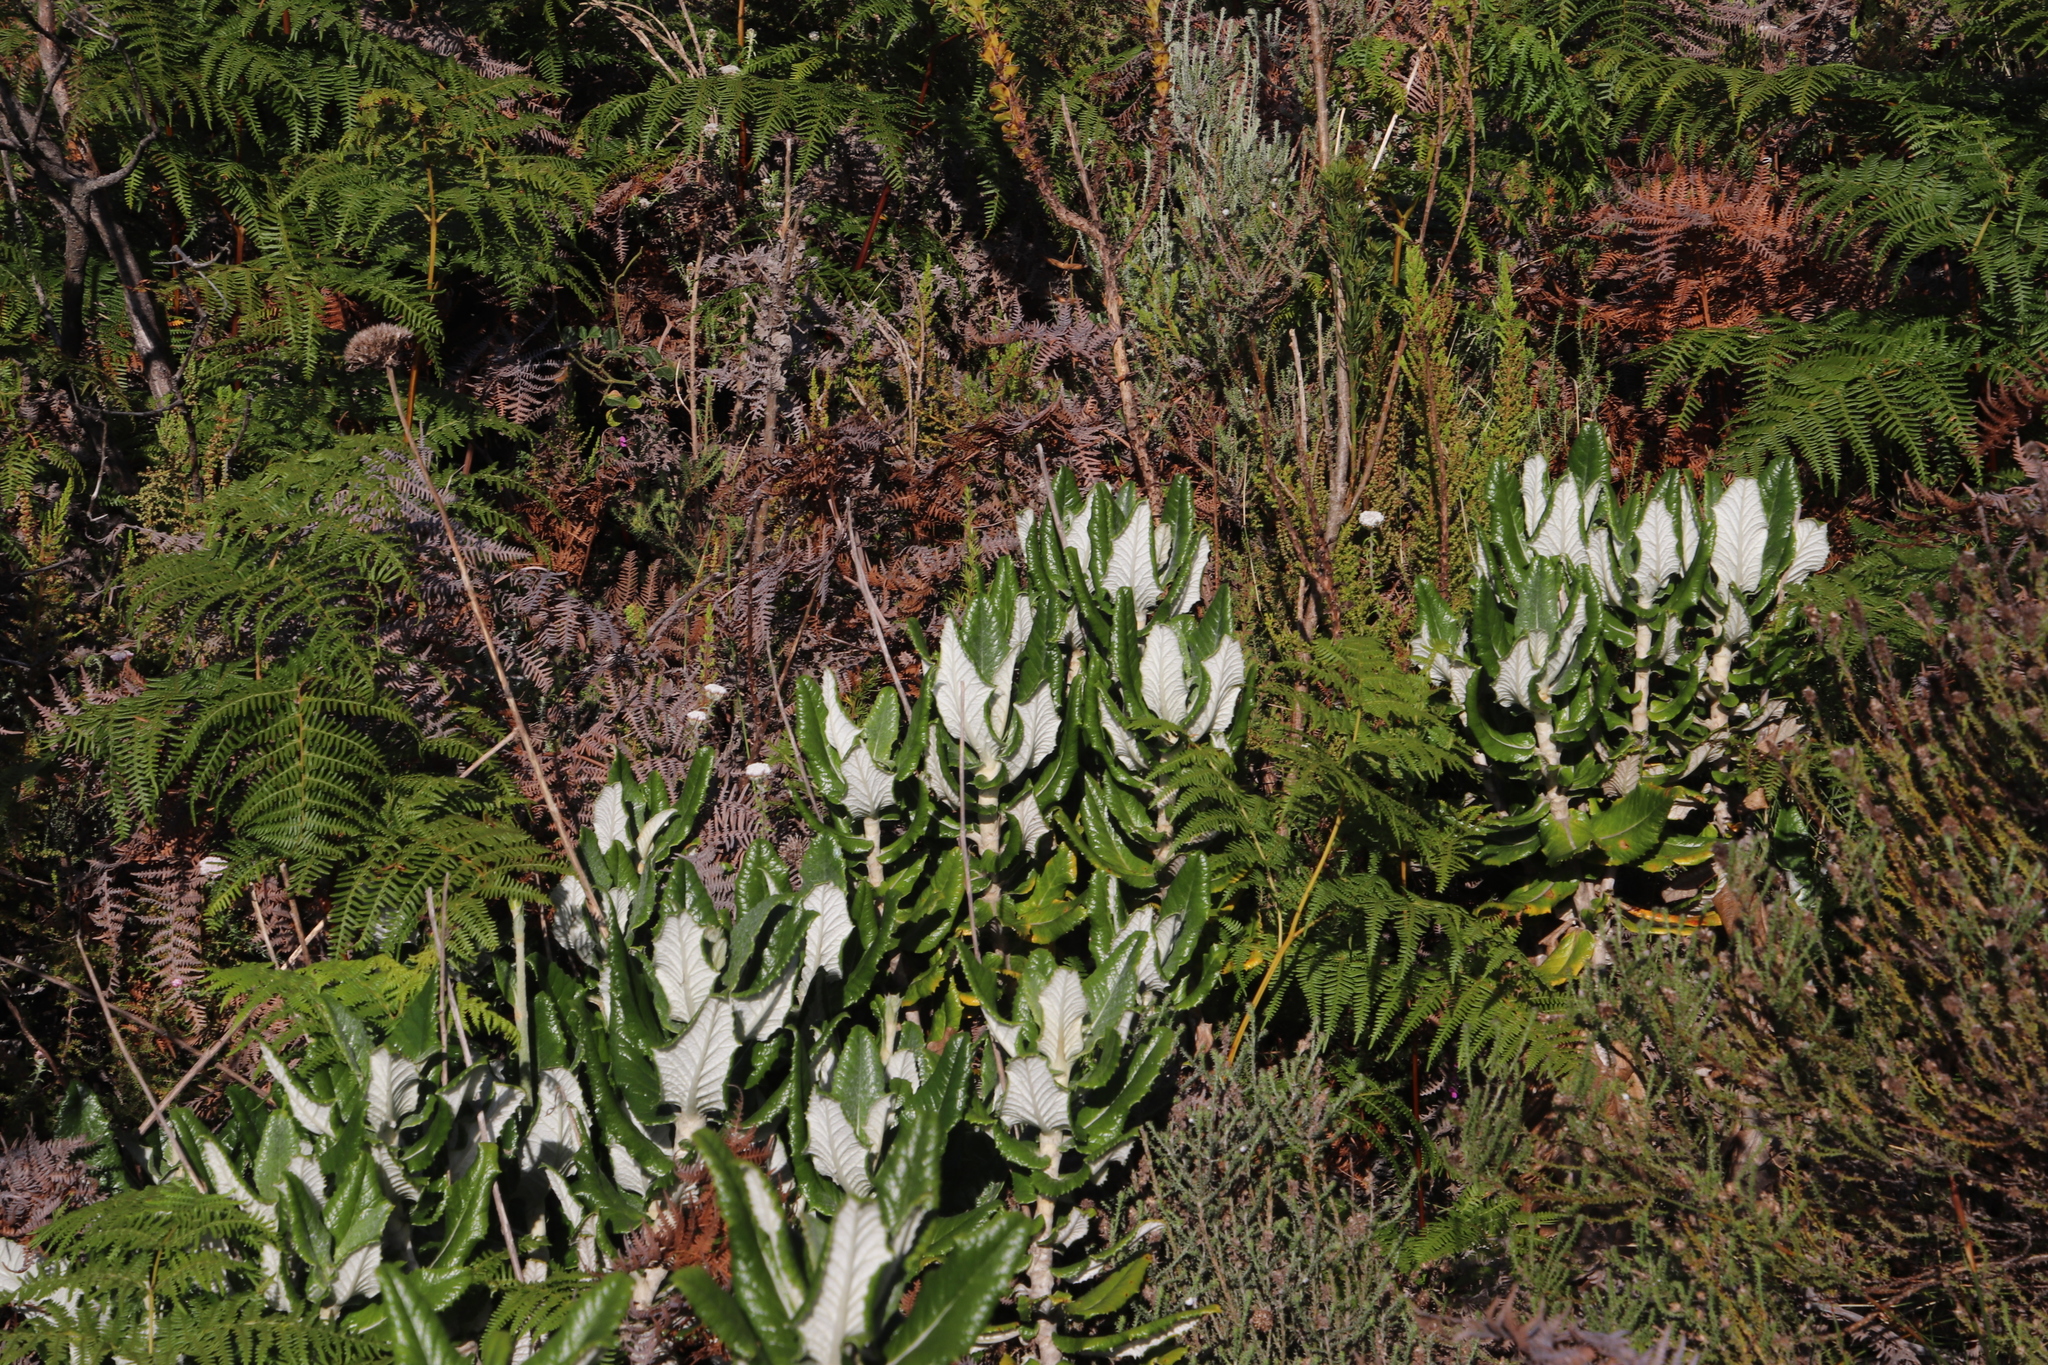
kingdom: Plantae
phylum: Tracheophyta
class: Magnoliopsida
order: Apiales
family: Apiaceae
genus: Hermas
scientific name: Hermas villosa
